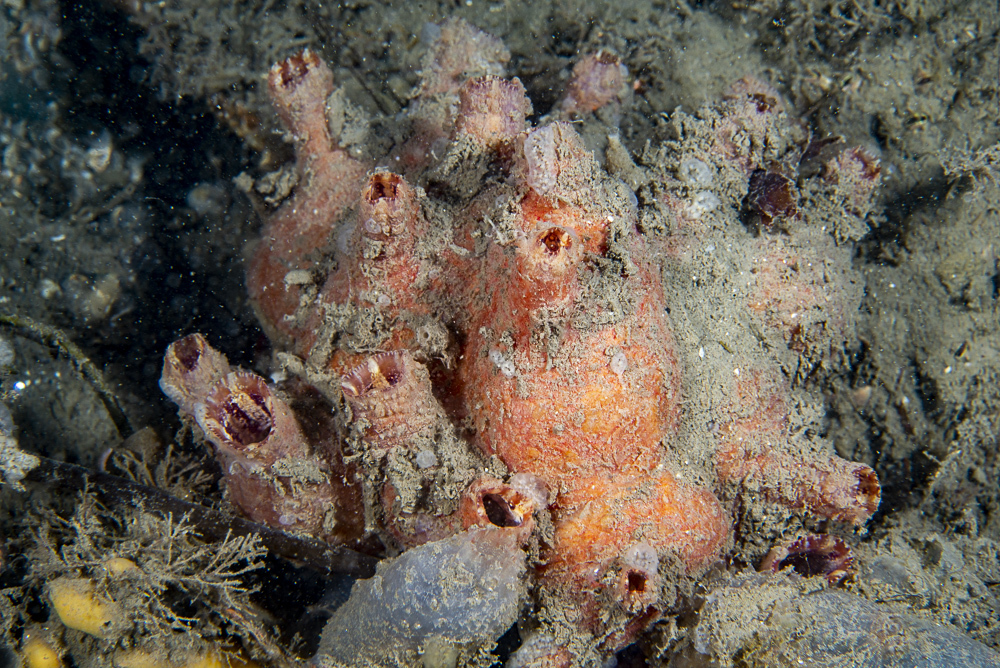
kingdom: Animalia
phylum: Chordata
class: Ascidiacea
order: Stolidobranchia
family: Styelidae
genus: Asterocarpa
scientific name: Asterocarpa humilis
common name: Compass sea squirt
